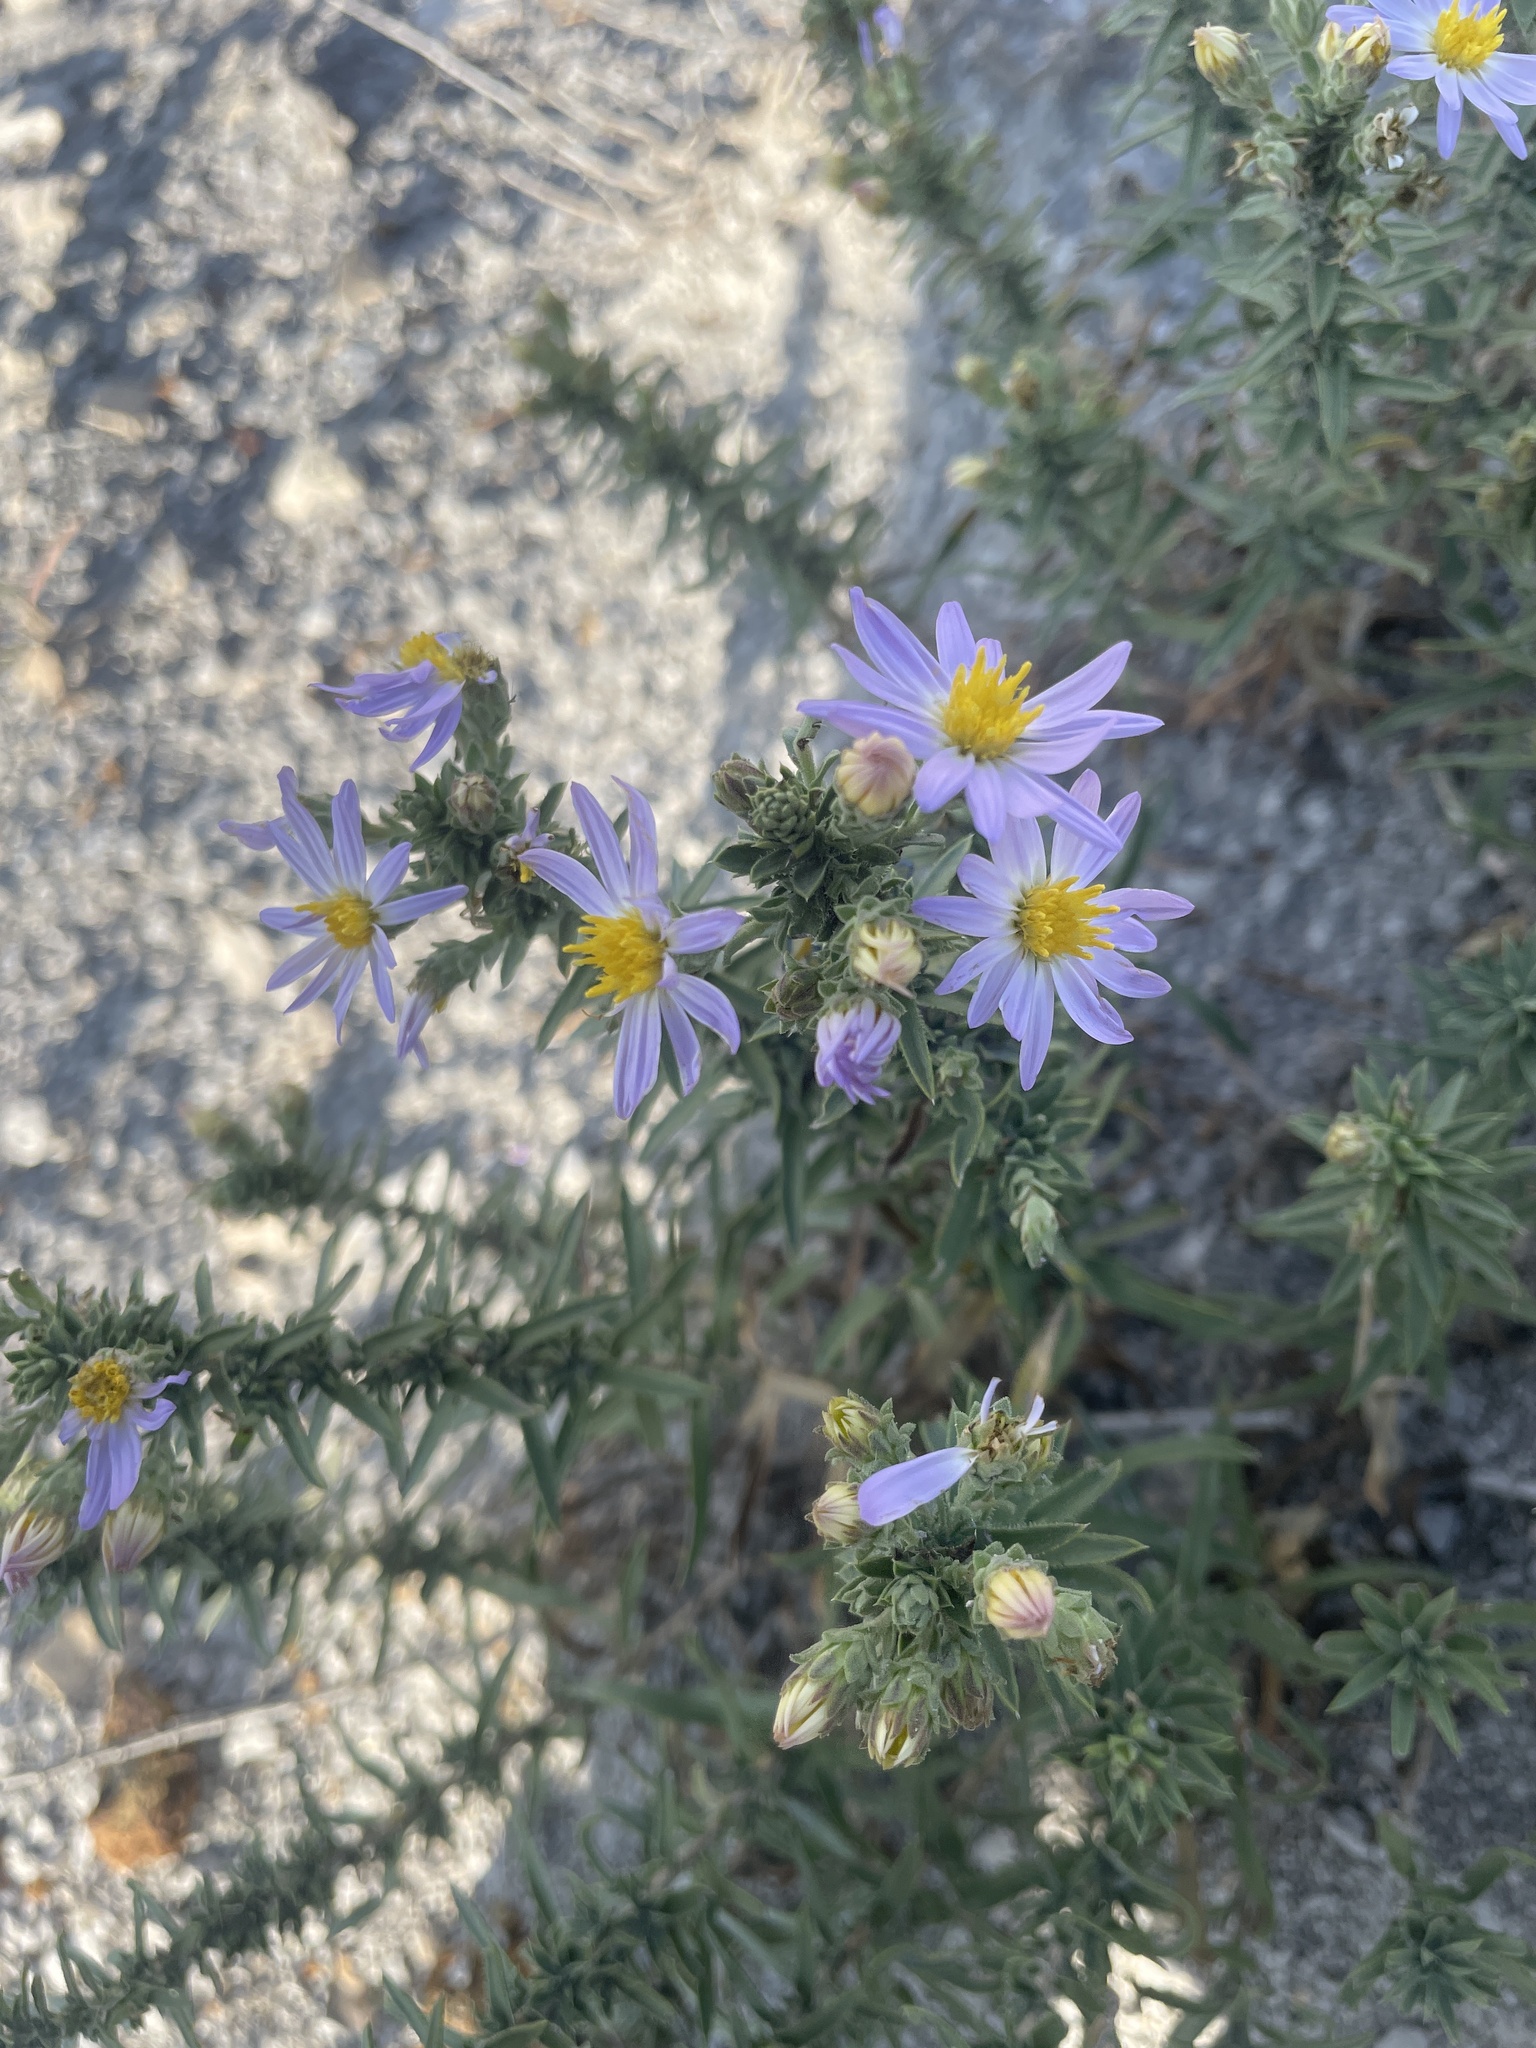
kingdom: Plantae
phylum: Tracheophyta
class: Magnoliopsida
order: Asterales
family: Asteraceae
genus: Symphyotrichum
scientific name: Symphyotrichum fendleri
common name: Fendler's aster
